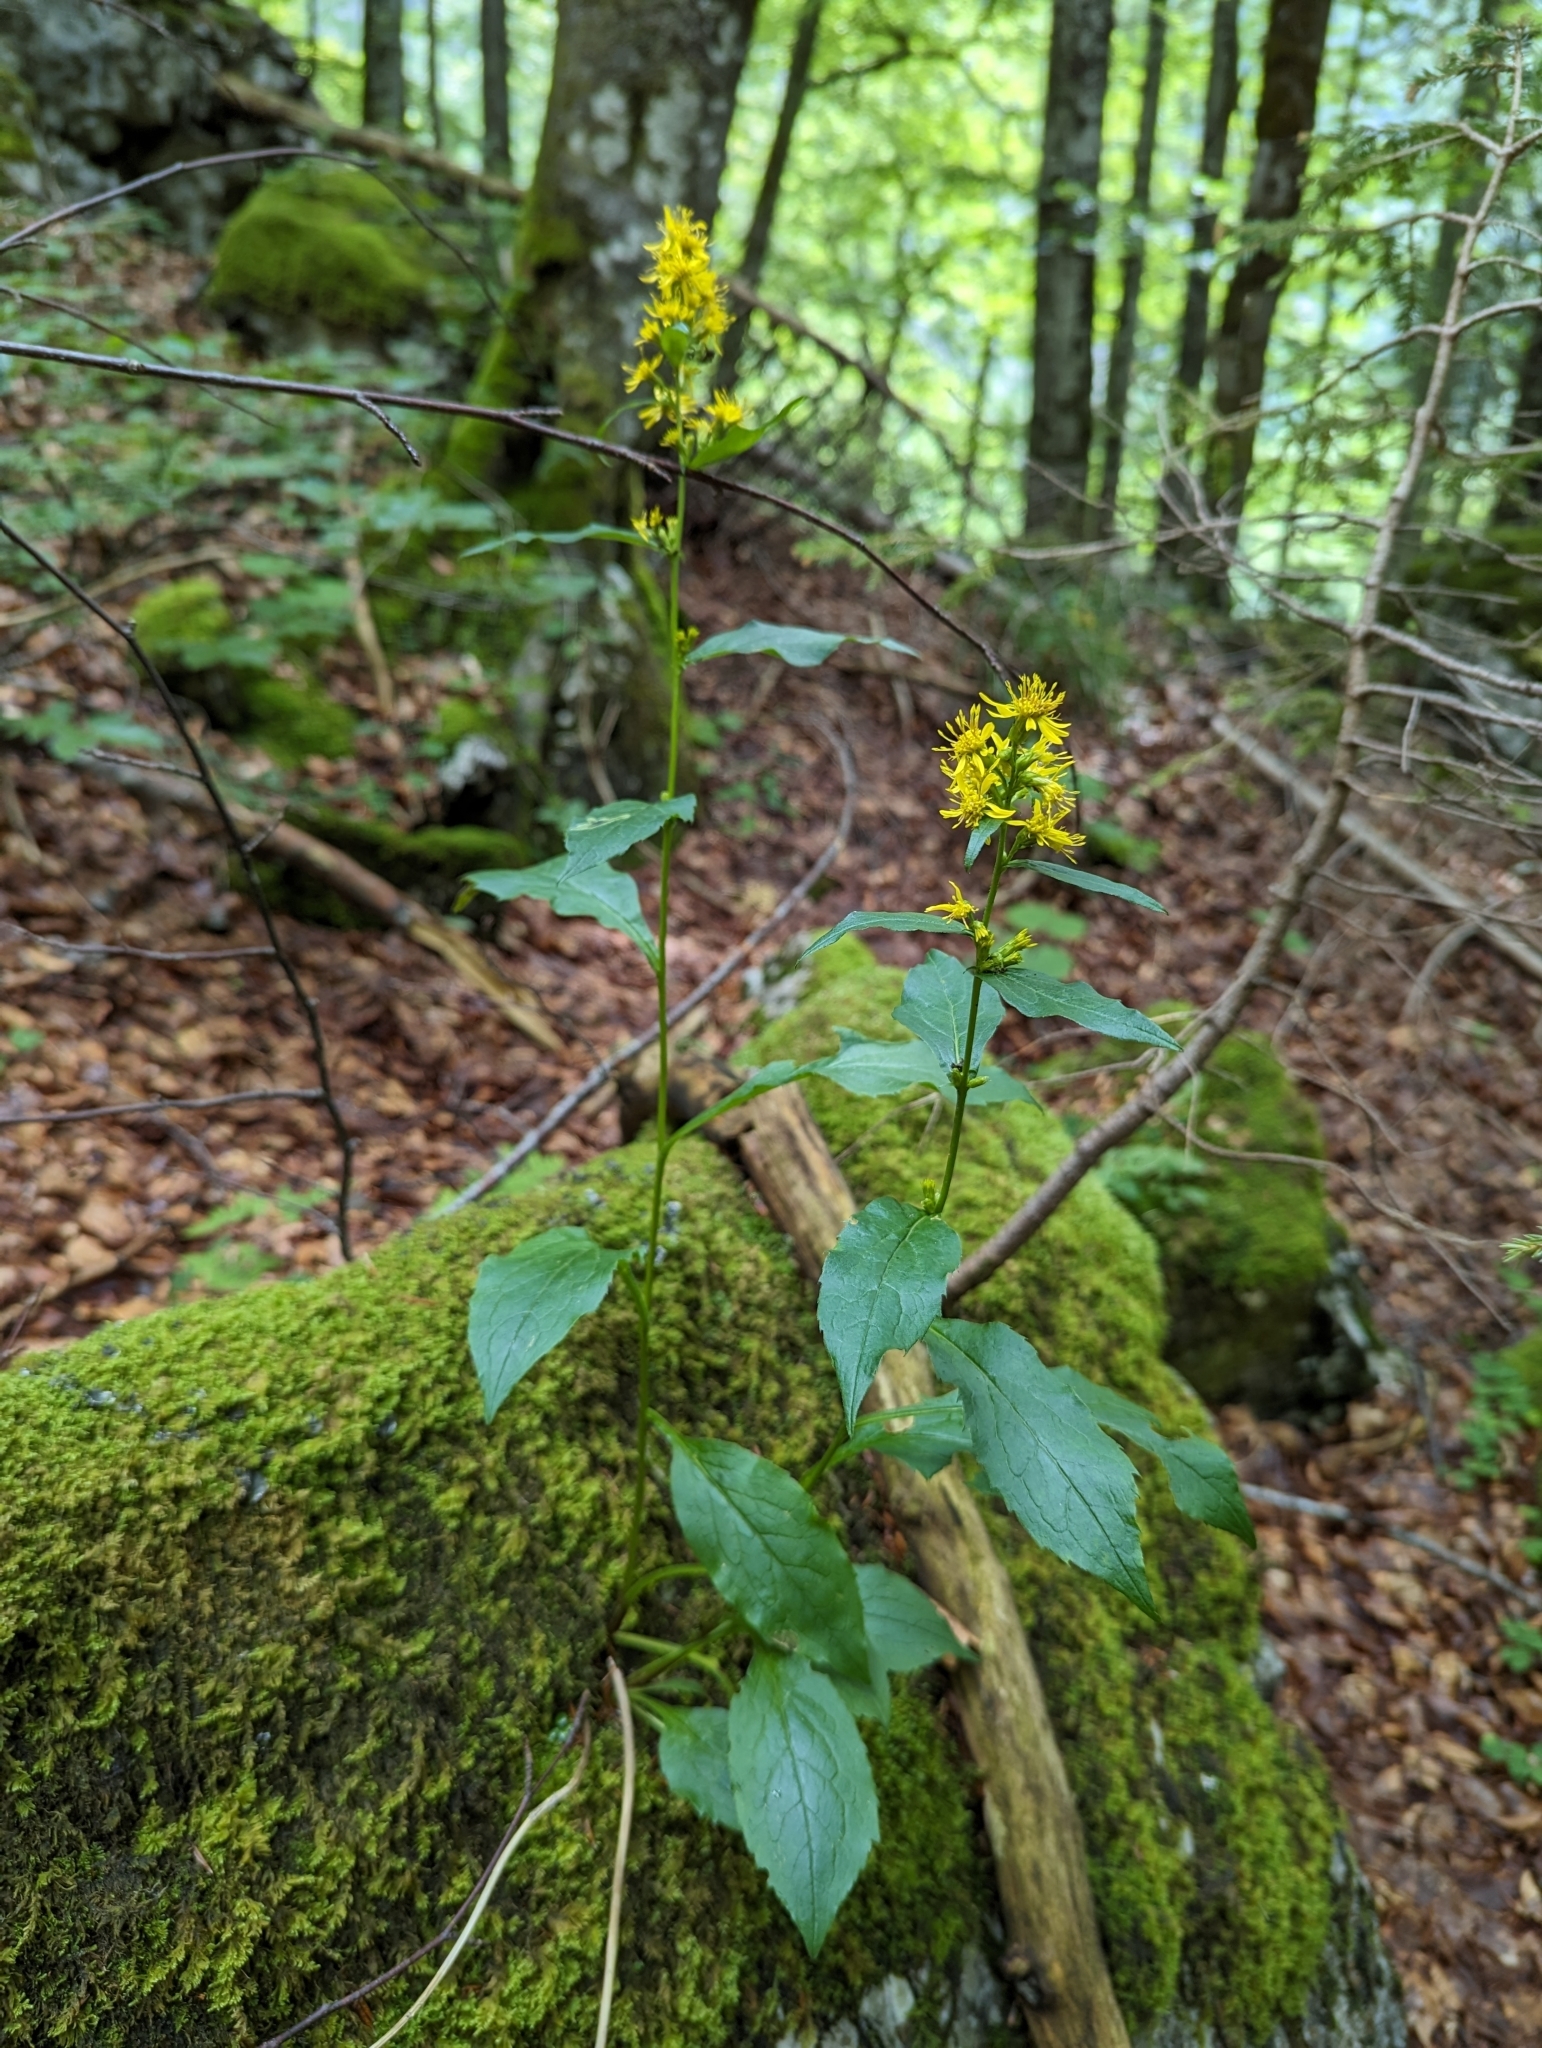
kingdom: Plantae
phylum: Tracheophyta
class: Magnoliopsida
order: Asterales
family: Asteraceae
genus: Solidago
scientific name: Solidago virgaurea
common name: Goldenrod
